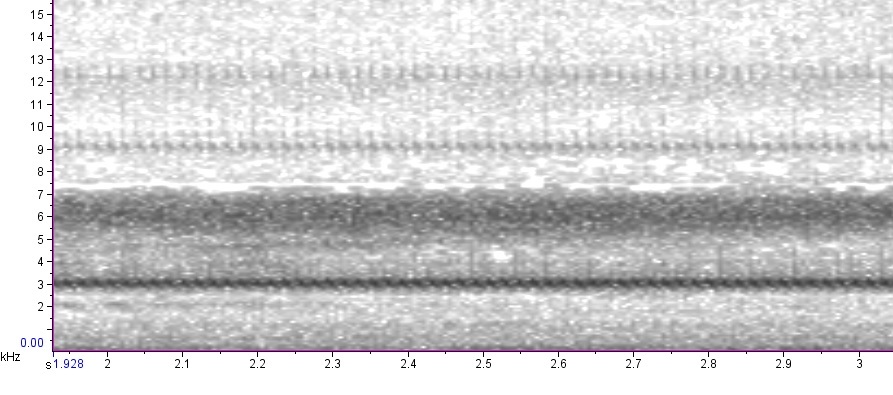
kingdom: Animalia
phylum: Arthropoda
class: Insecta
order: Orthoptera
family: Gryllidae
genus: Oecanthus
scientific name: Oecanthus latipennis
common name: Broad-winged tree cricket
